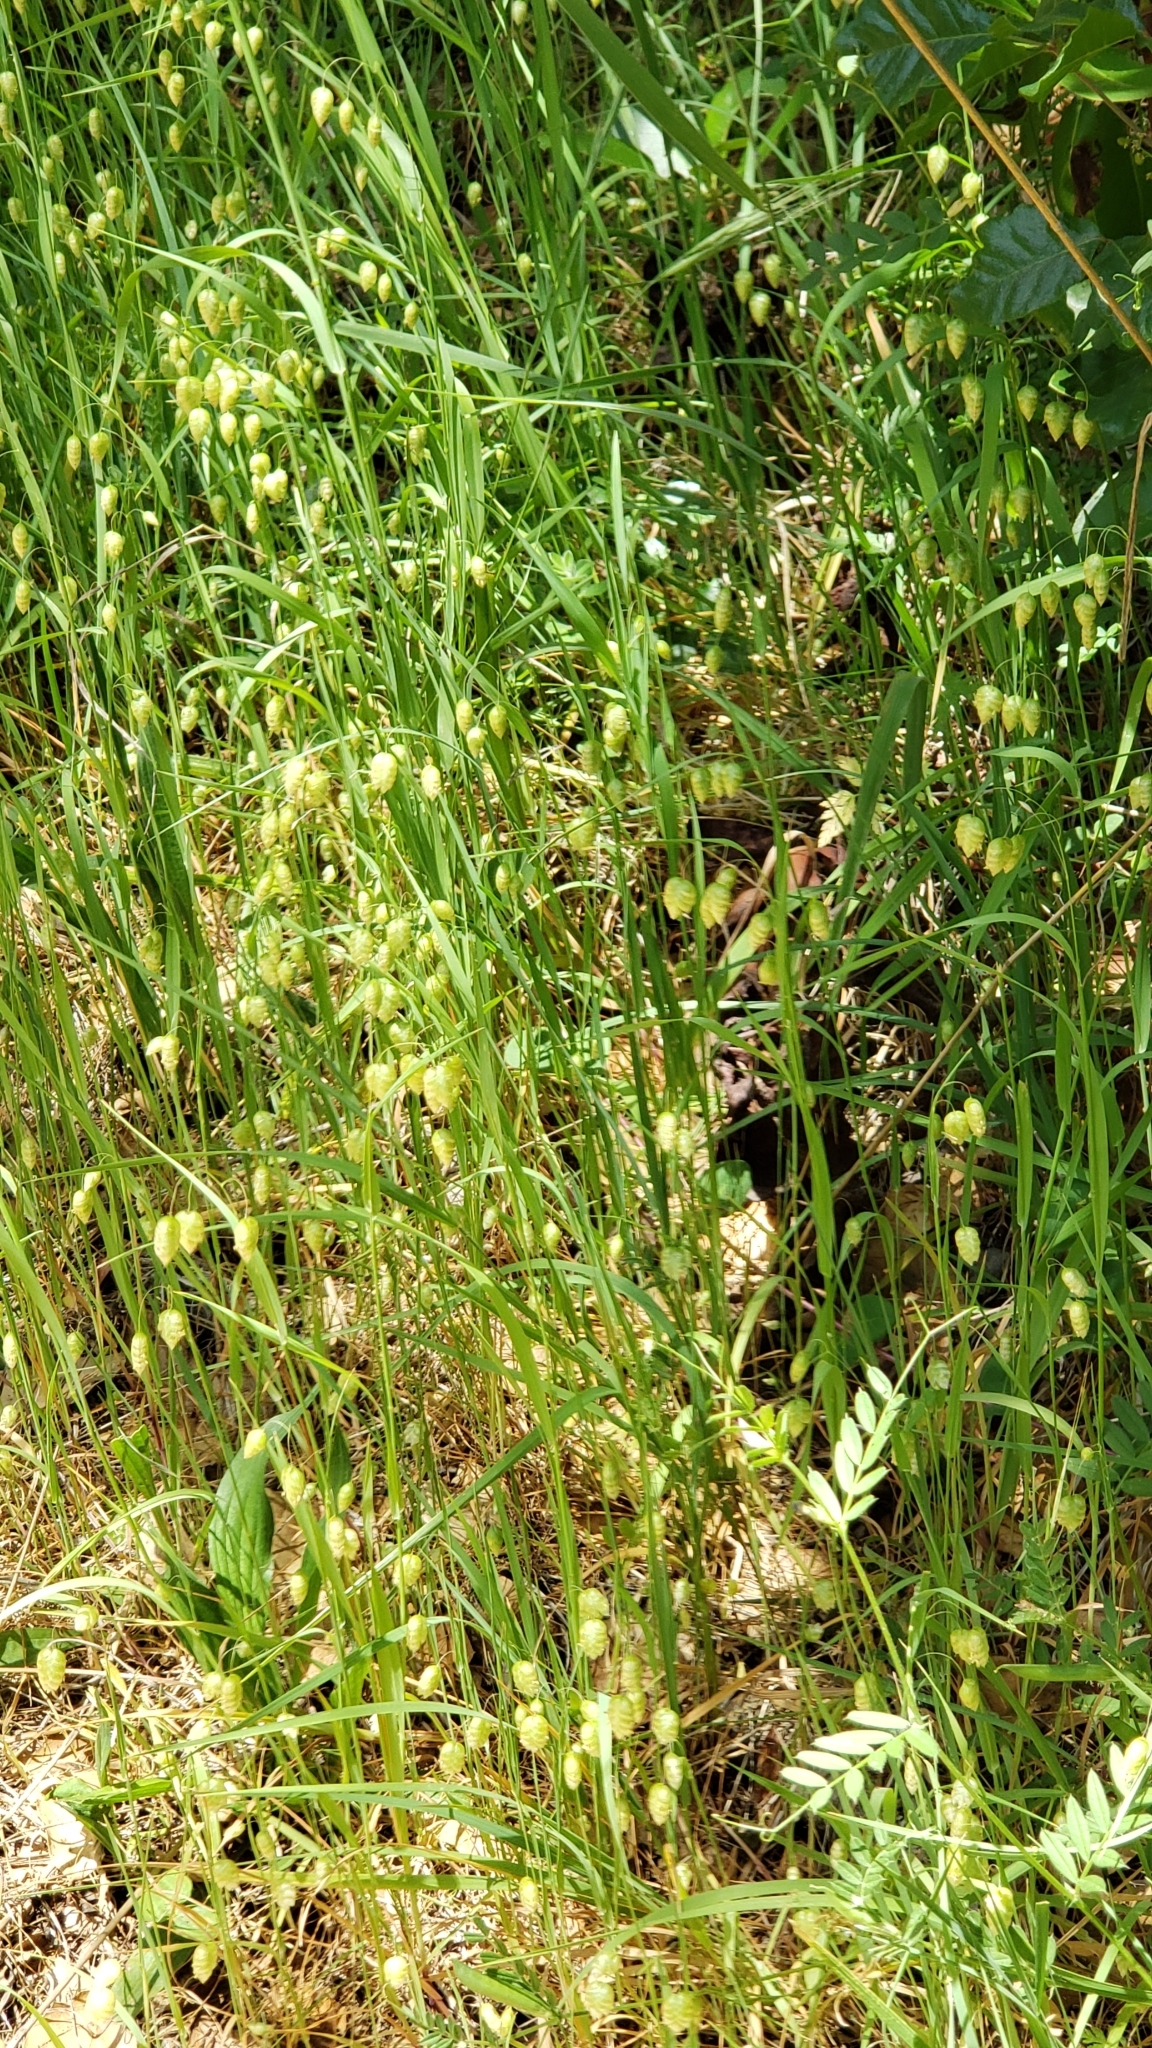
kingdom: Plantae
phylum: Tracheophyta
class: Liliopsida
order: Poales
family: Poaceae
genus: Briza
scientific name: Briza maxima
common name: Big quakinggrass
